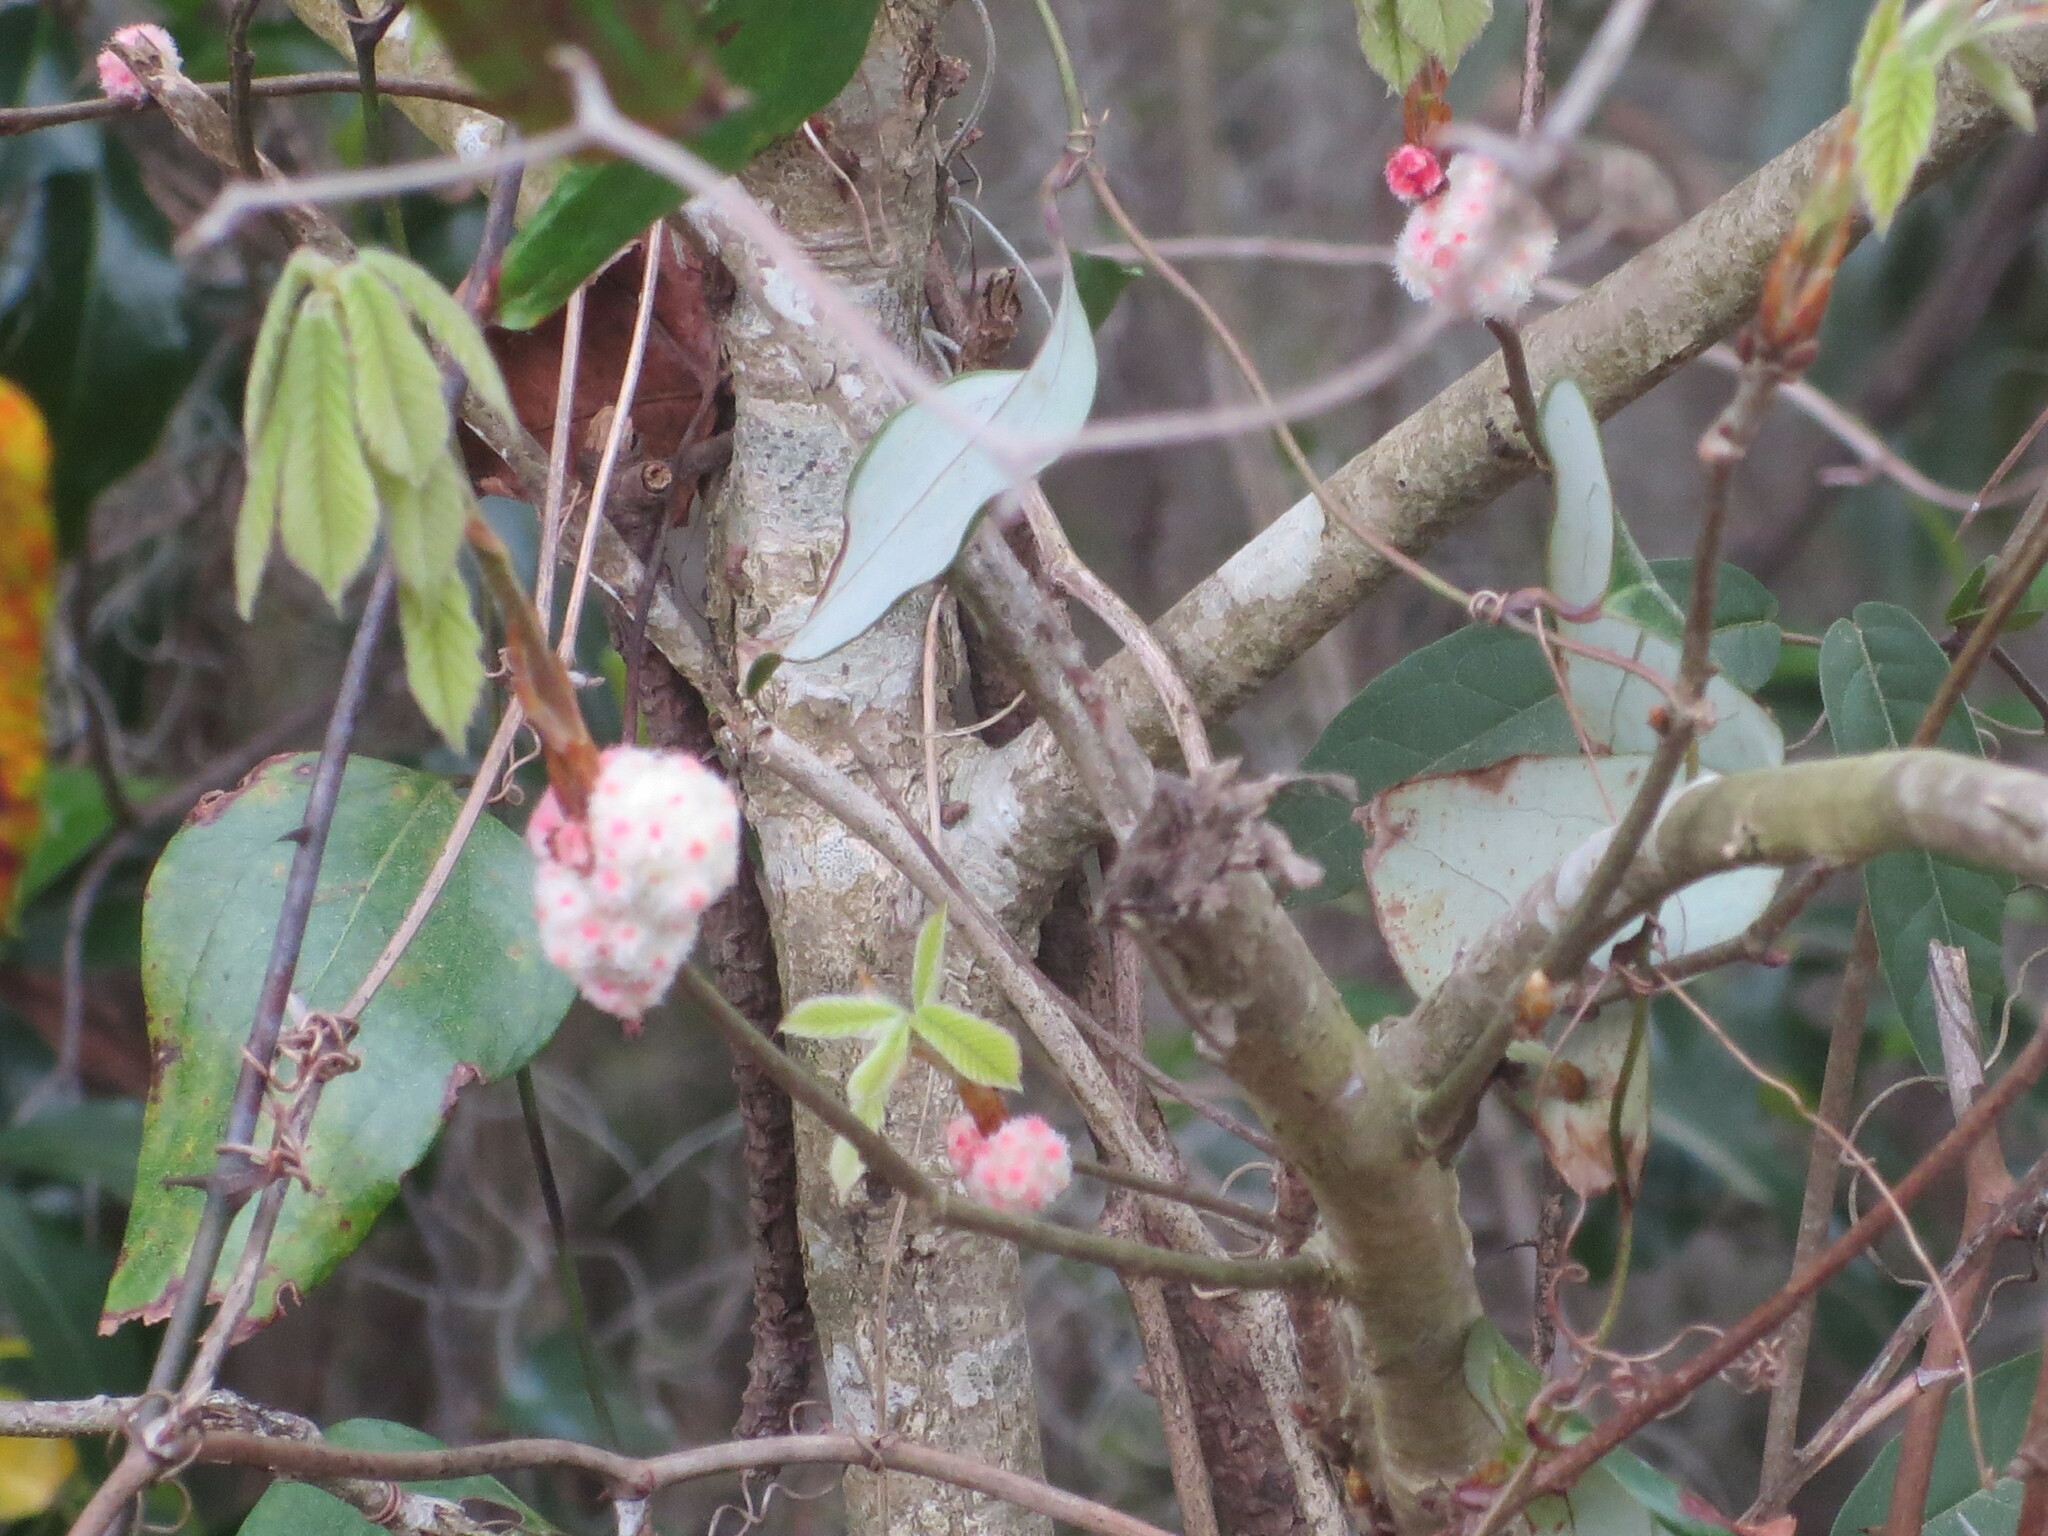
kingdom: Animalia
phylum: Arthropoda
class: Insecta
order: Hymenoptera
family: Cynipidae
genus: Callirhytis
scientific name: Callirhytis
